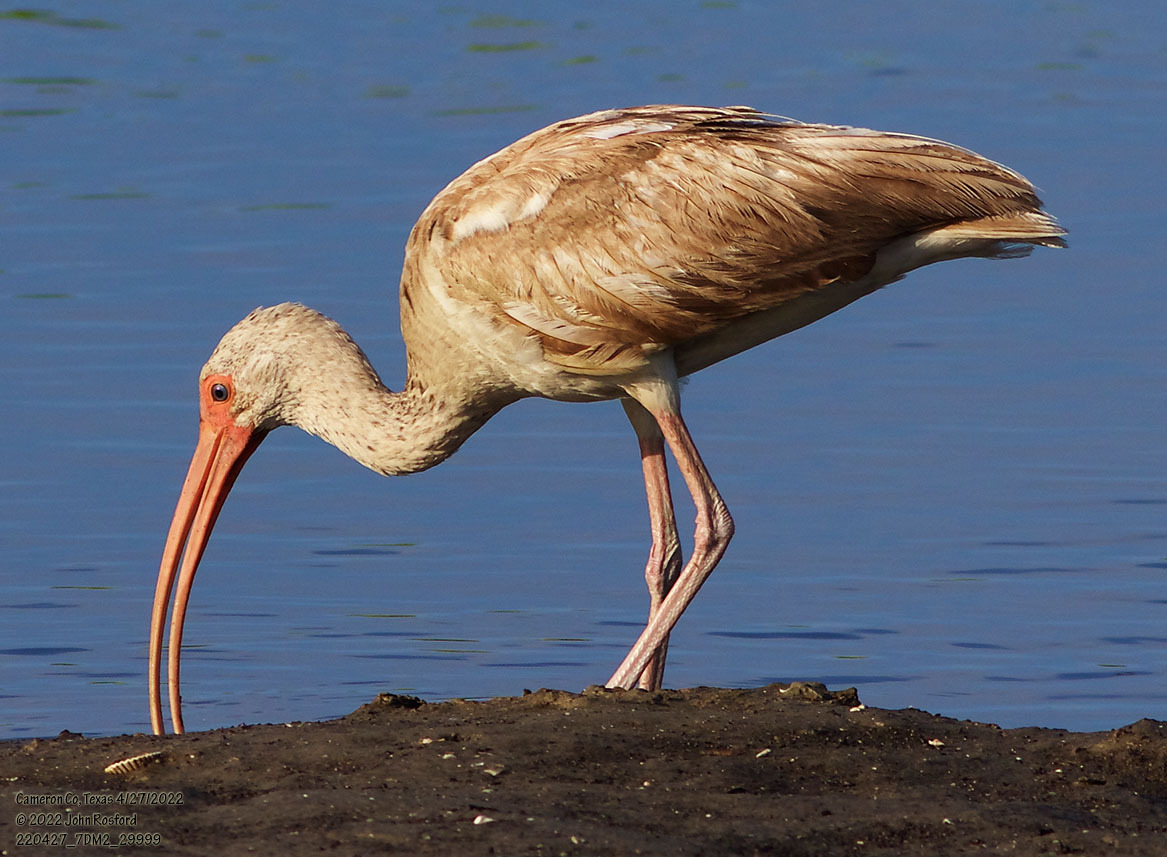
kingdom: Animalia
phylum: Chordata
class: Aves
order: Pelecaniformes
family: Threskiornithidae
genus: Eudocimus
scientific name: Eudocimus albus
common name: White ibis
